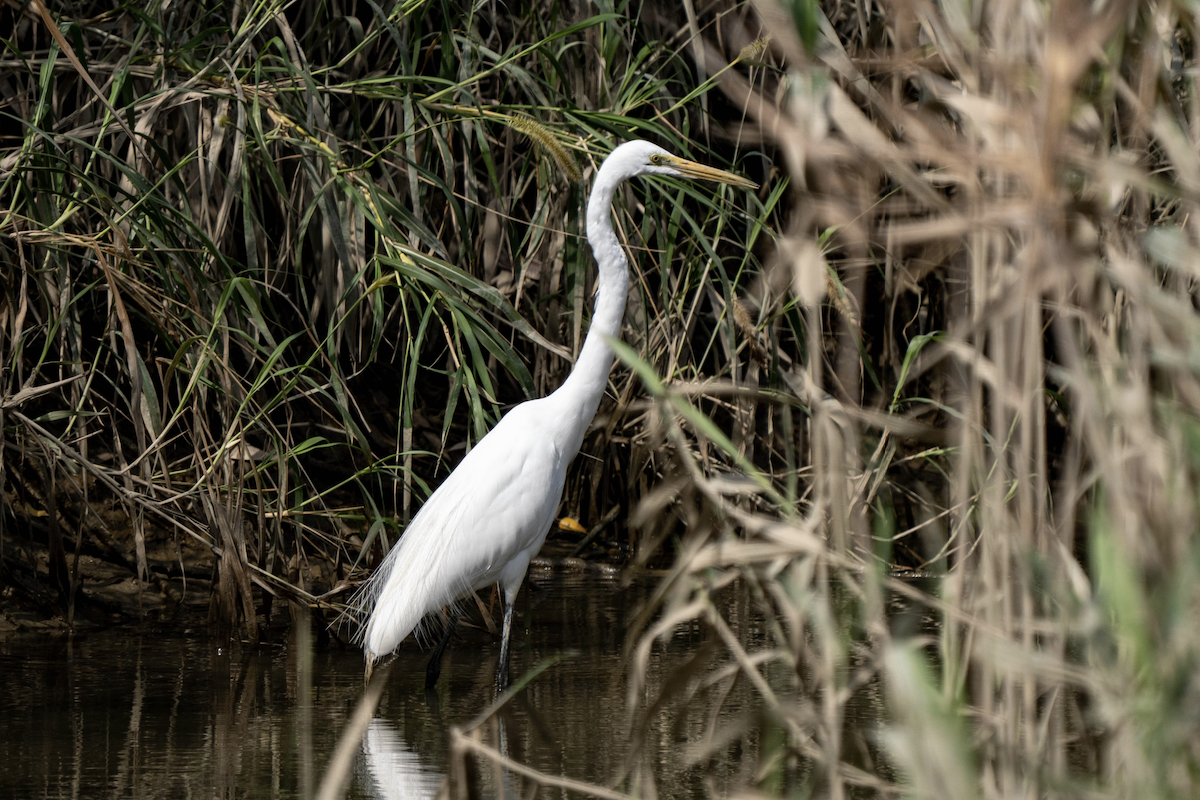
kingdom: Animalia
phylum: Chordata
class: Aves
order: Pelecaniformes
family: Ardeidae
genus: Ardea
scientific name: Ardea alba
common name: Great egret
